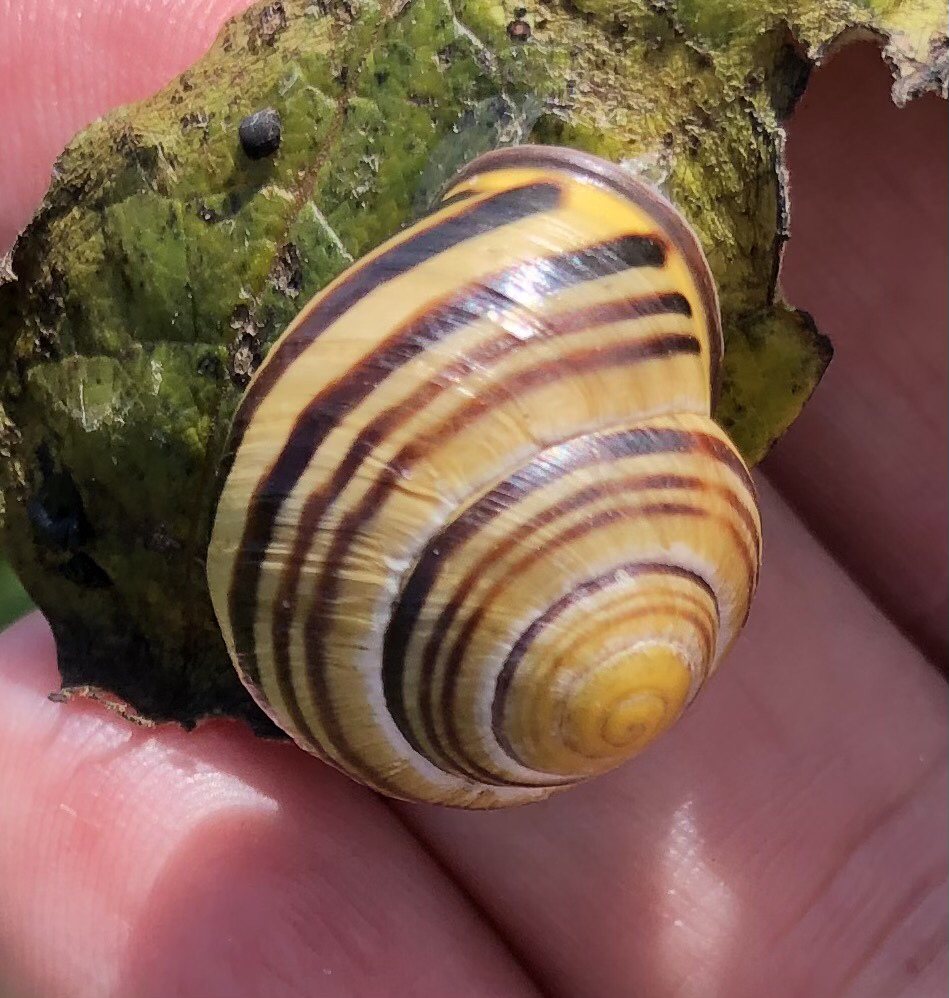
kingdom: Animalia
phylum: Mollusca
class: Gastropoda
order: Stylommatophora
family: Helicidae
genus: Cepaea
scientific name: Cepaea nemoralis
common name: Grovesnail
